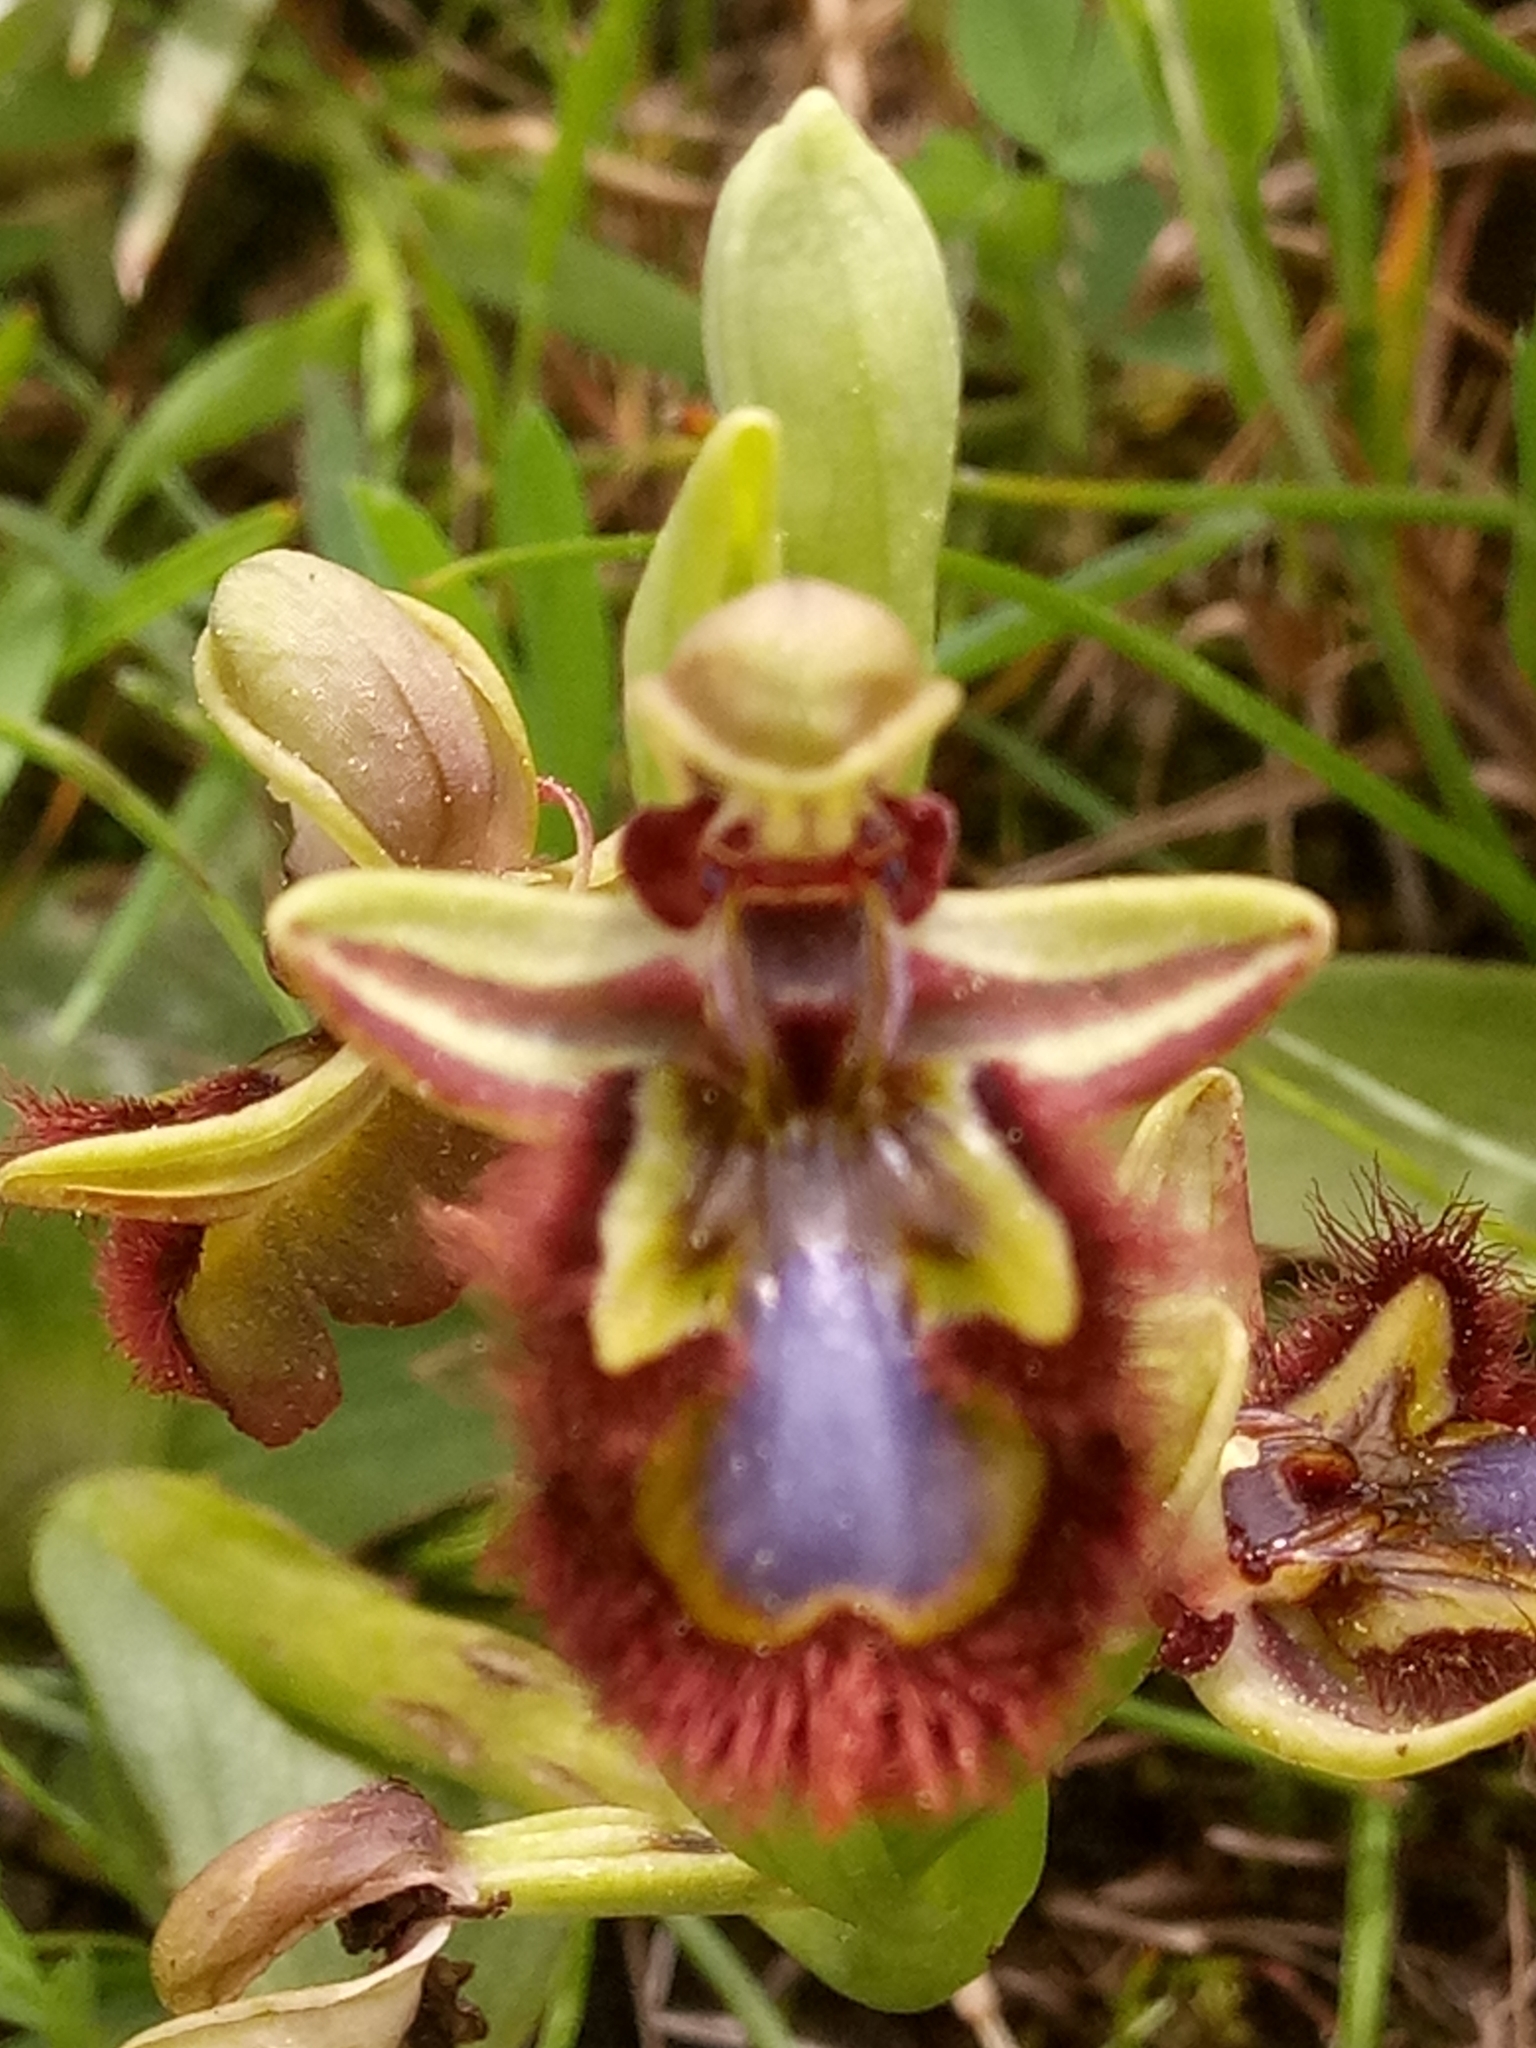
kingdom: Plantae
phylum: Tracheophyta
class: Liliopsida
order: Asparagales
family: Orchidaceae
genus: Ophrys
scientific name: Ophrys speculum
